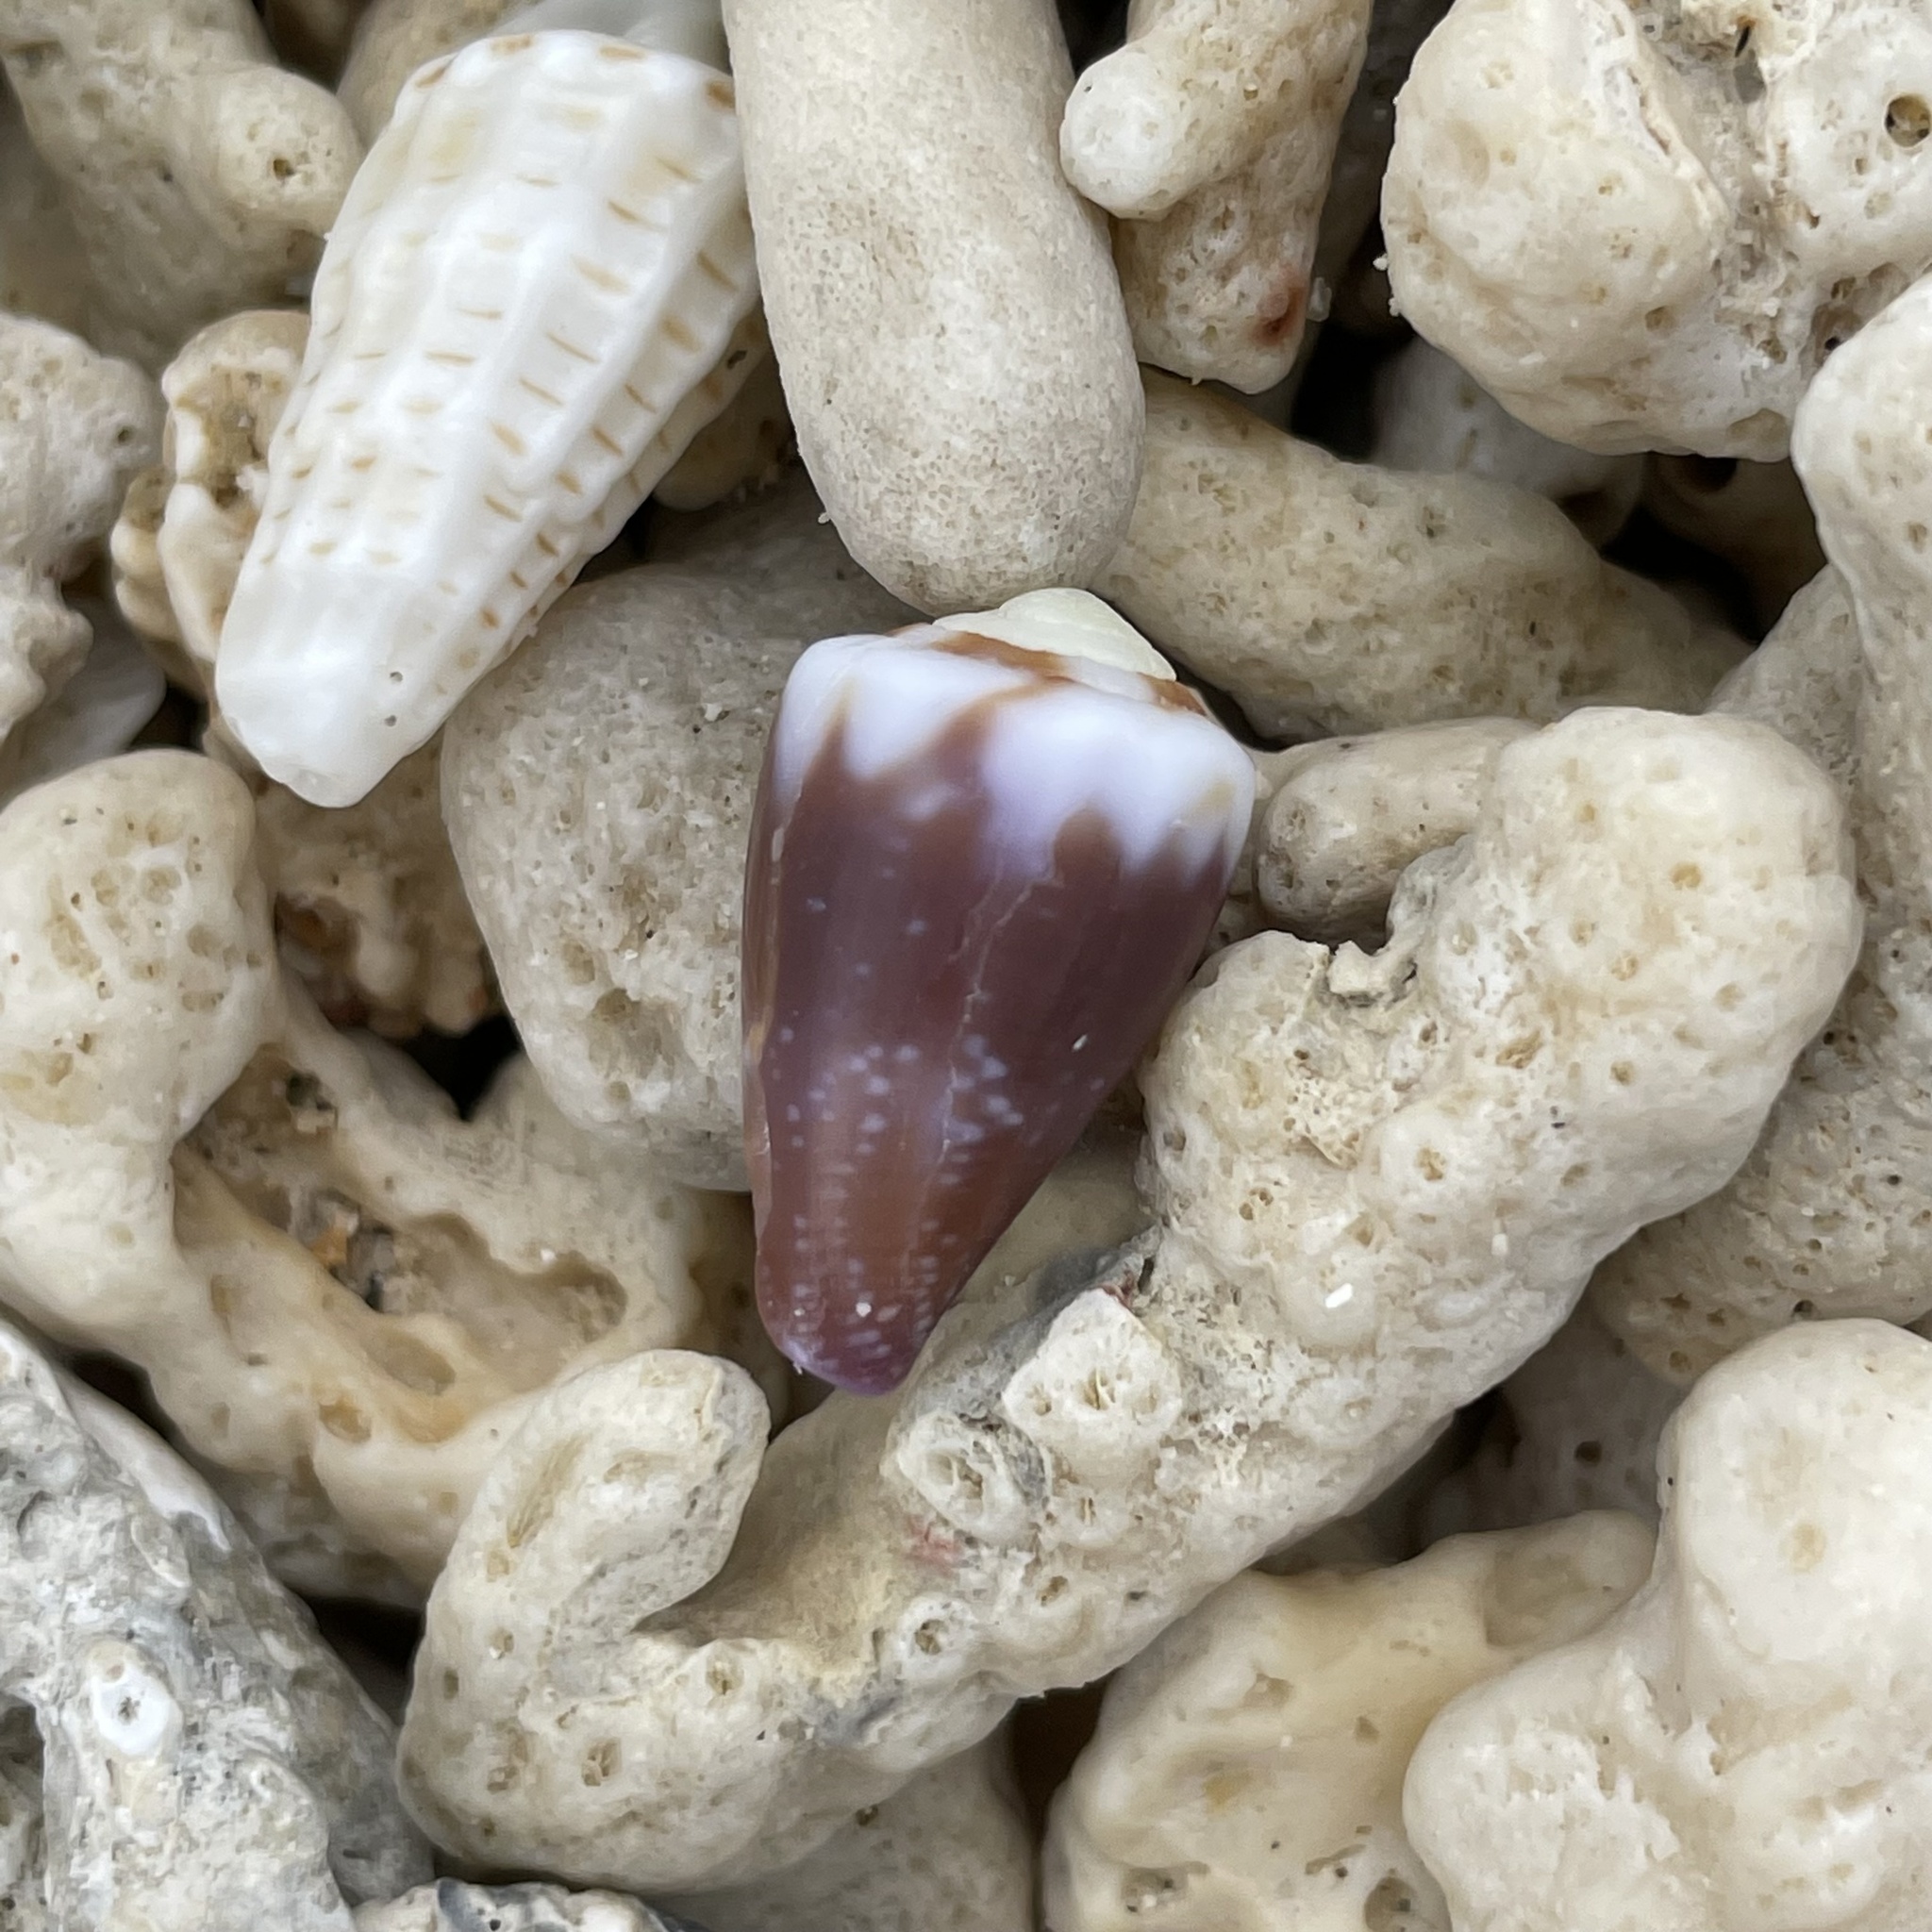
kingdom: Animalia
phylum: Mollusca
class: Gastropoda
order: Neogastropoda
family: Conidae
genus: Conus
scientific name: Conus rattus
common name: Rat cone
